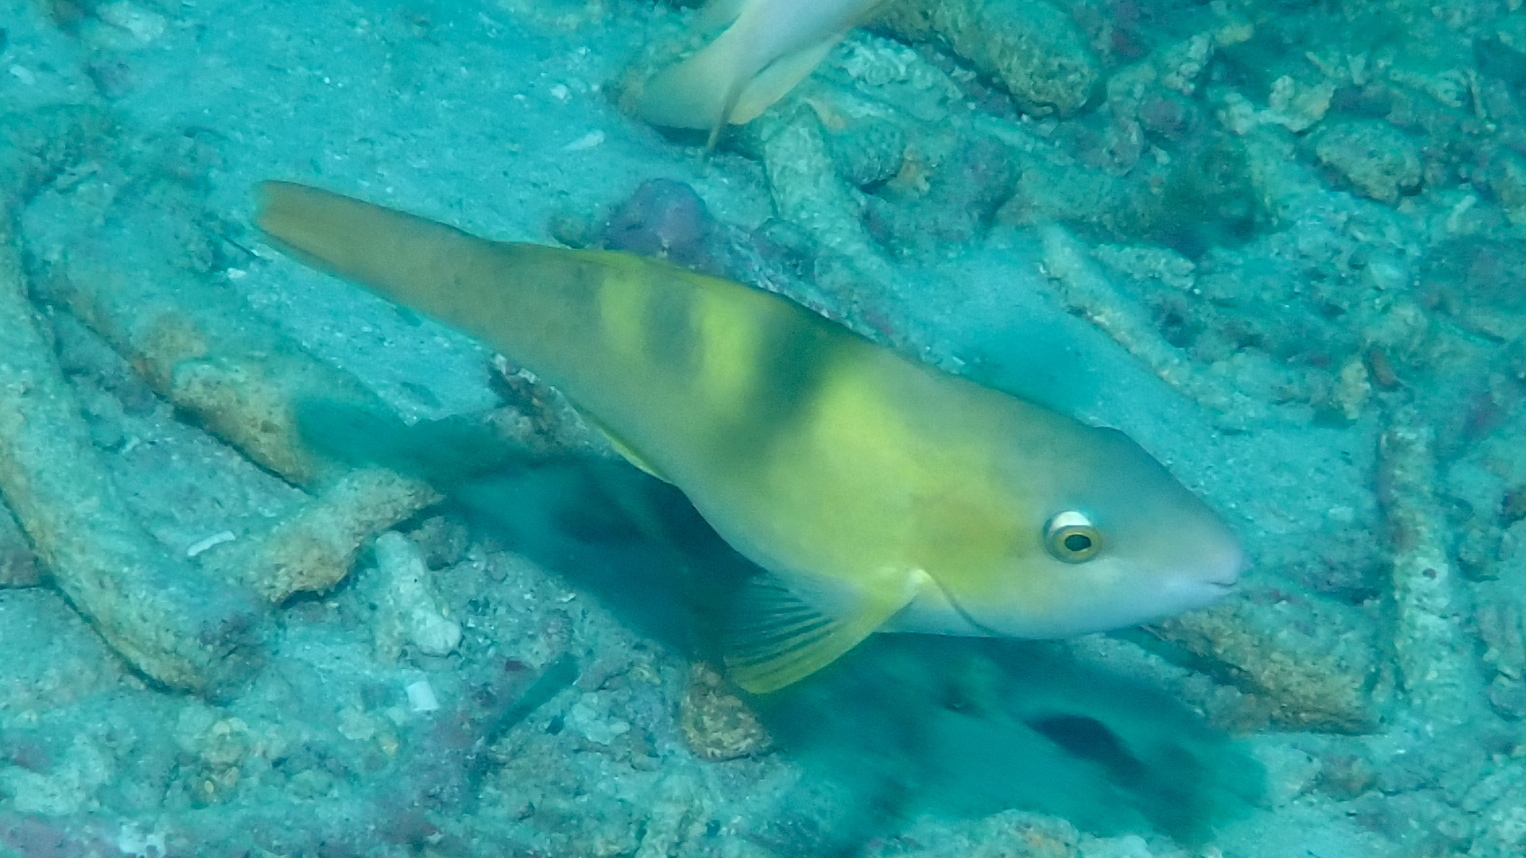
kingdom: Animalia
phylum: Chordata
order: Perciformes
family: Scaridae
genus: Scarus
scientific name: Scarus dimidiatus
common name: Yellowbarred parrotfish
